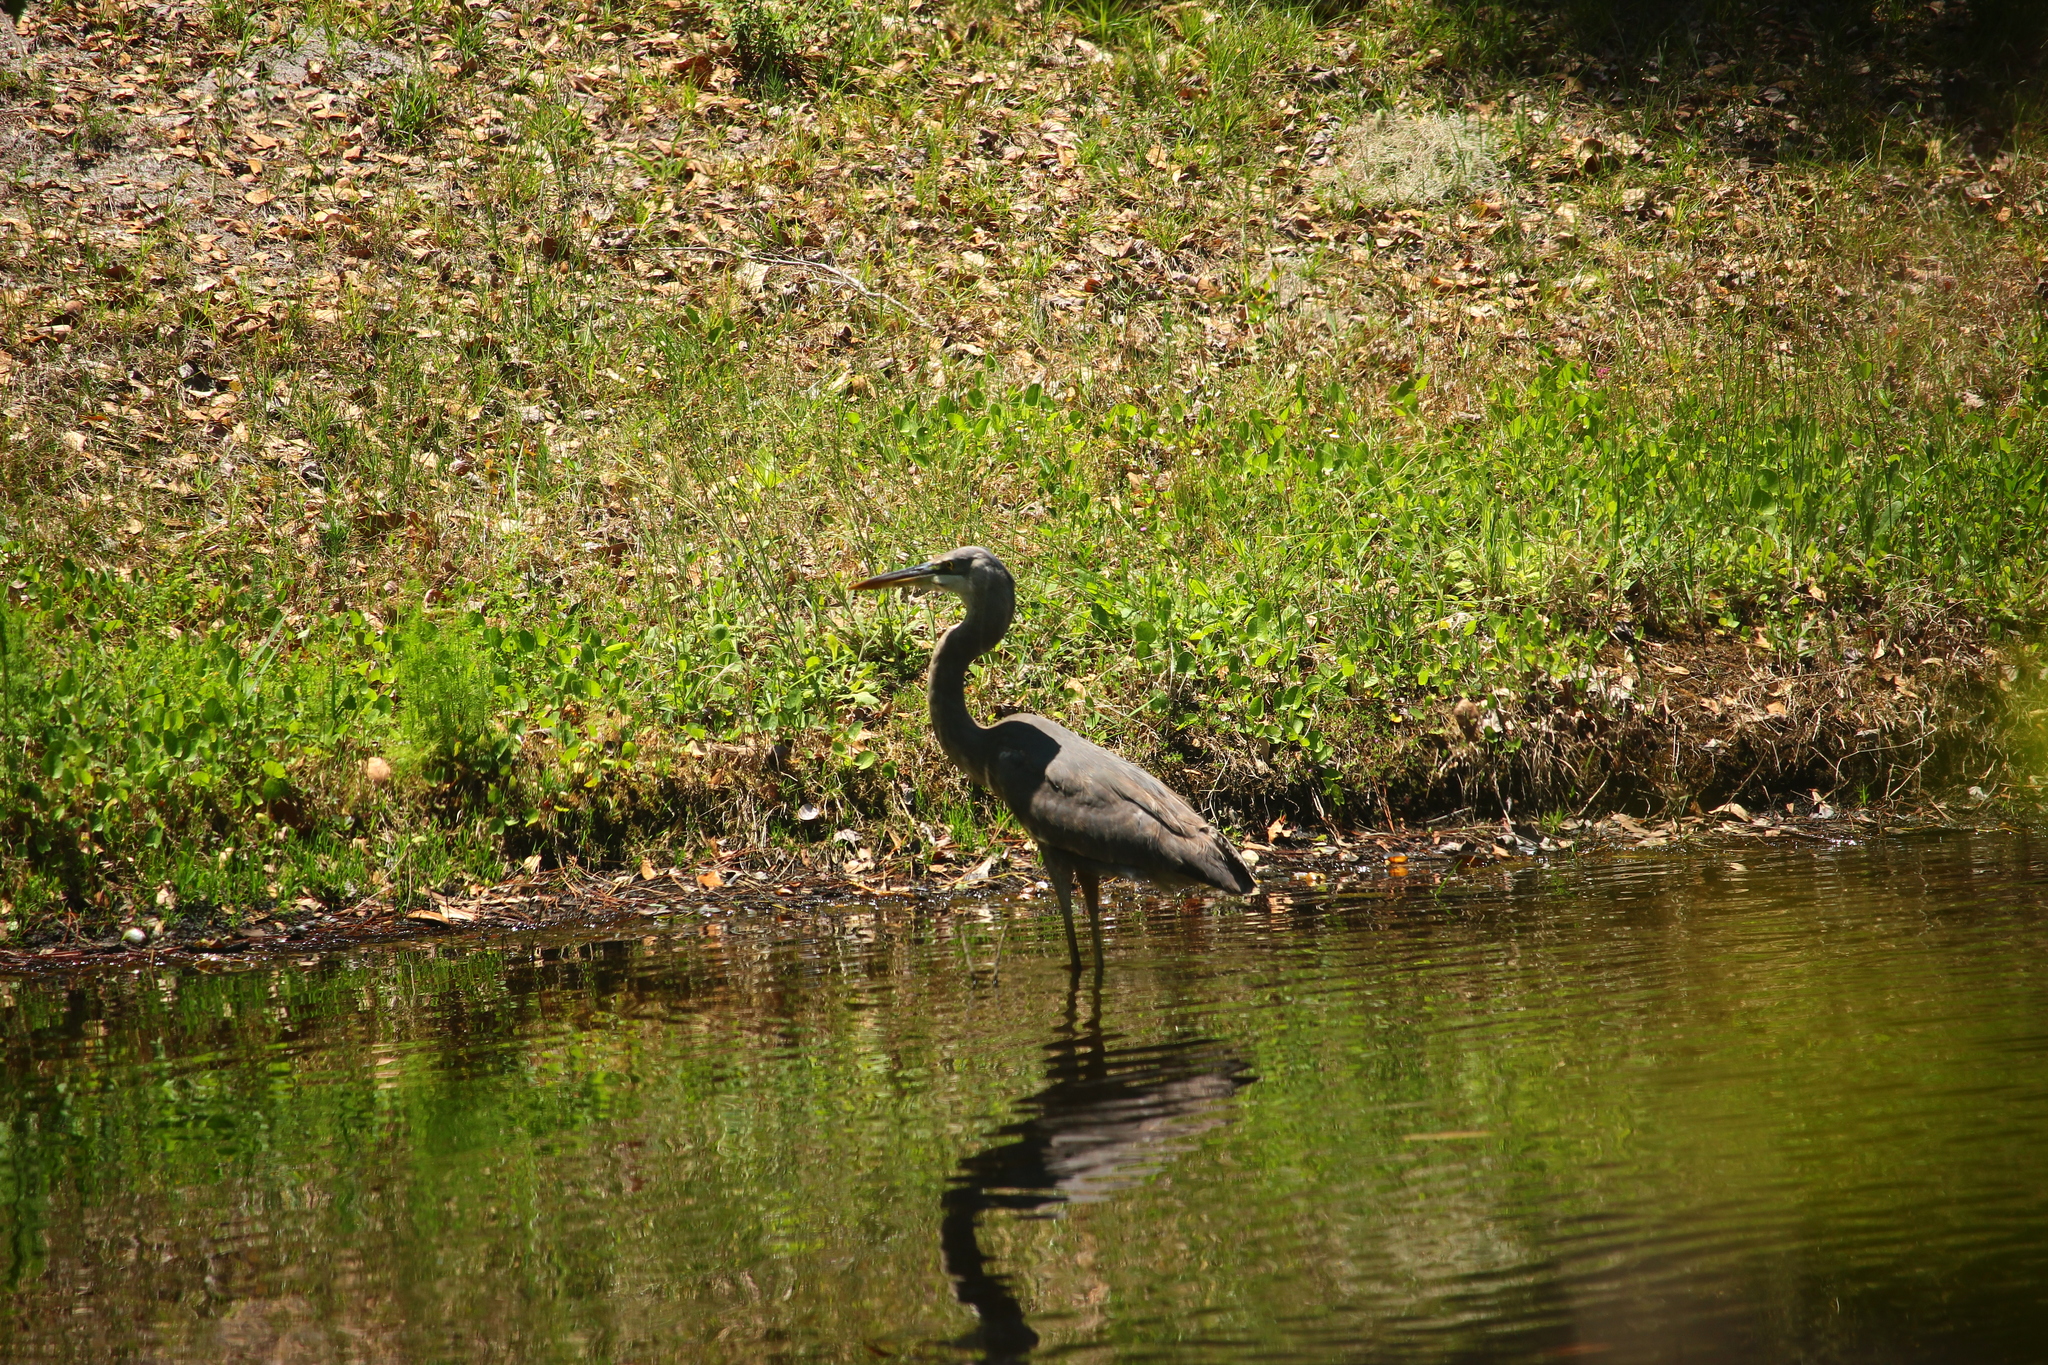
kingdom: Animalia
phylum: Chordata
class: Aves
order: Pelecaniformes
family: Ardeidae
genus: Ardea
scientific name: Ardea herodias
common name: Great blue heron
